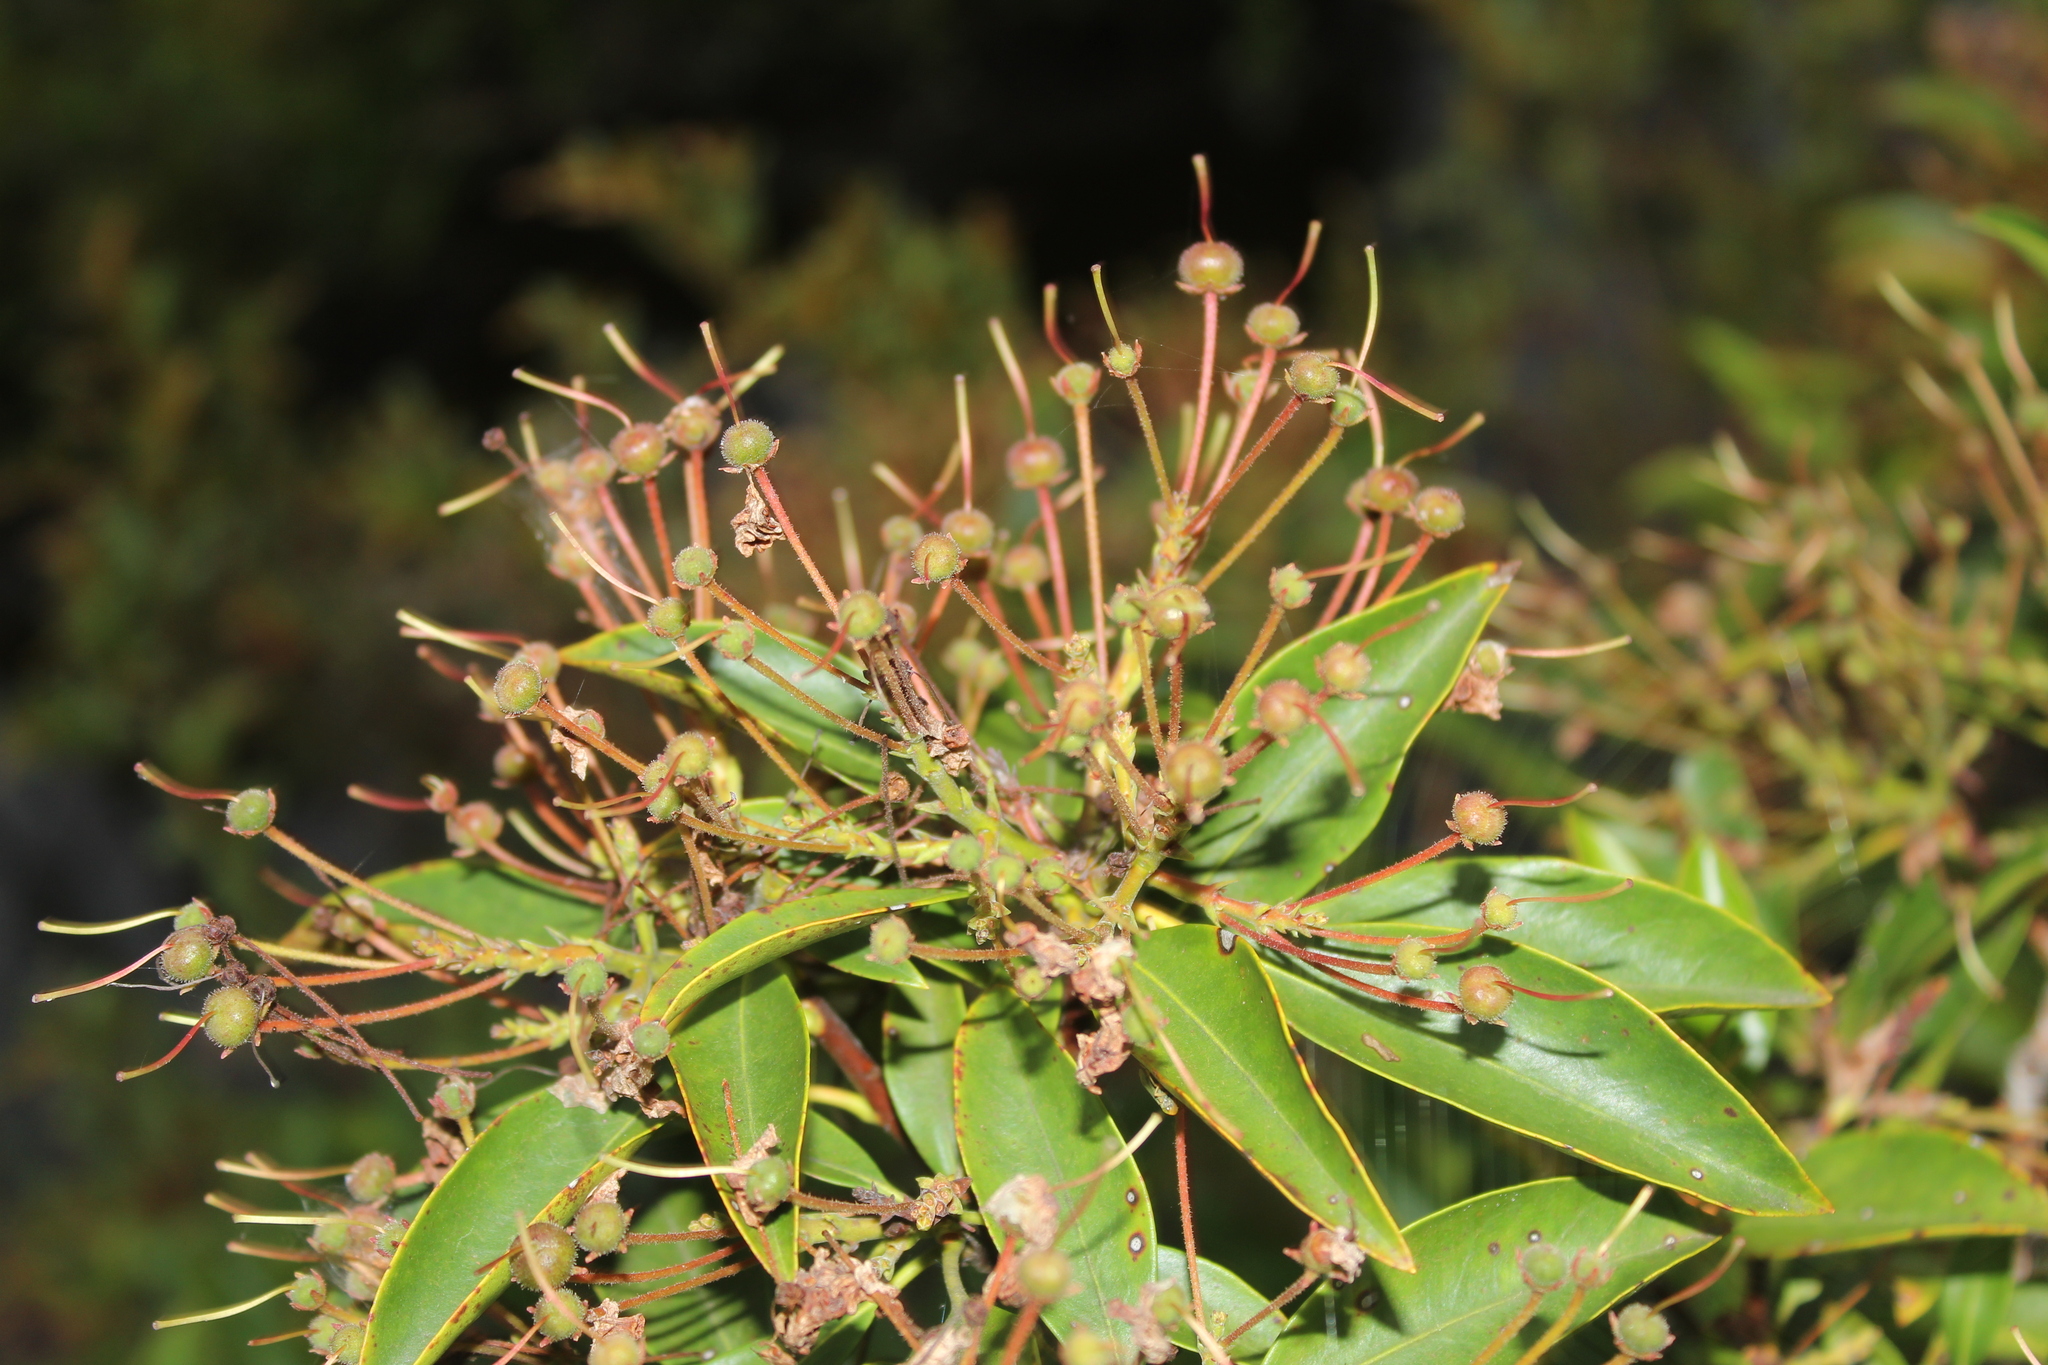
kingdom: Plantae
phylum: Tracheophyta
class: Magnoliopsida
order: Ericales
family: Ericaceae
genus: Kalmia
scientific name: Kalmia latifolia
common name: Mountain-laurel
